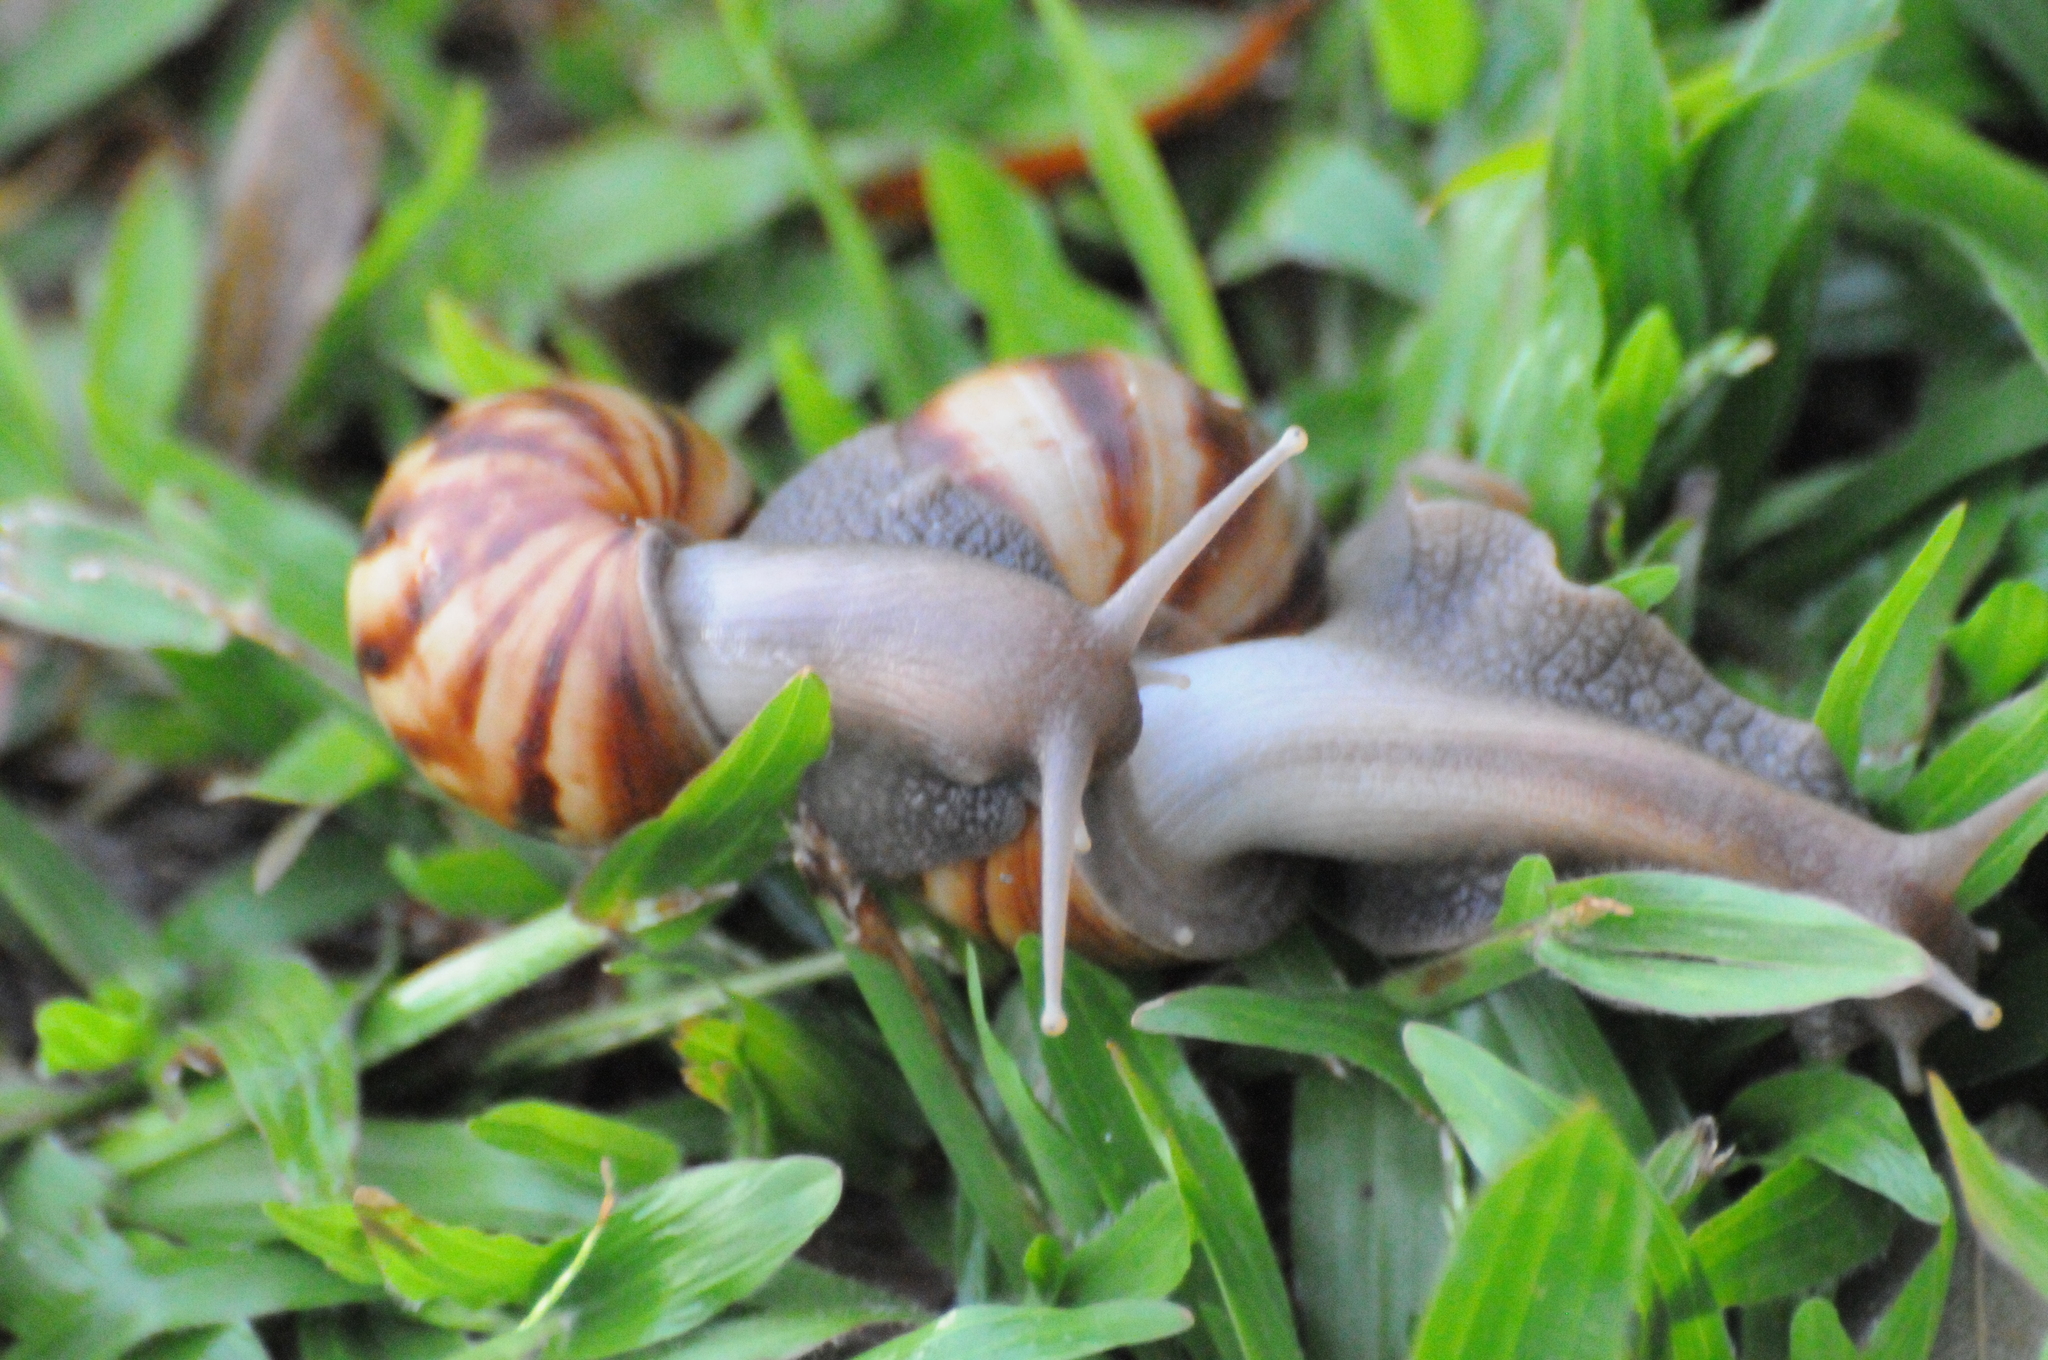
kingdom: Animalia
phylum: Mollusca
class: Gastropoda
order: Stylommatophora
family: Achatinidae
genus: Lissachatina
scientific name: Lissachatina fulica
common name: Giant african snail
